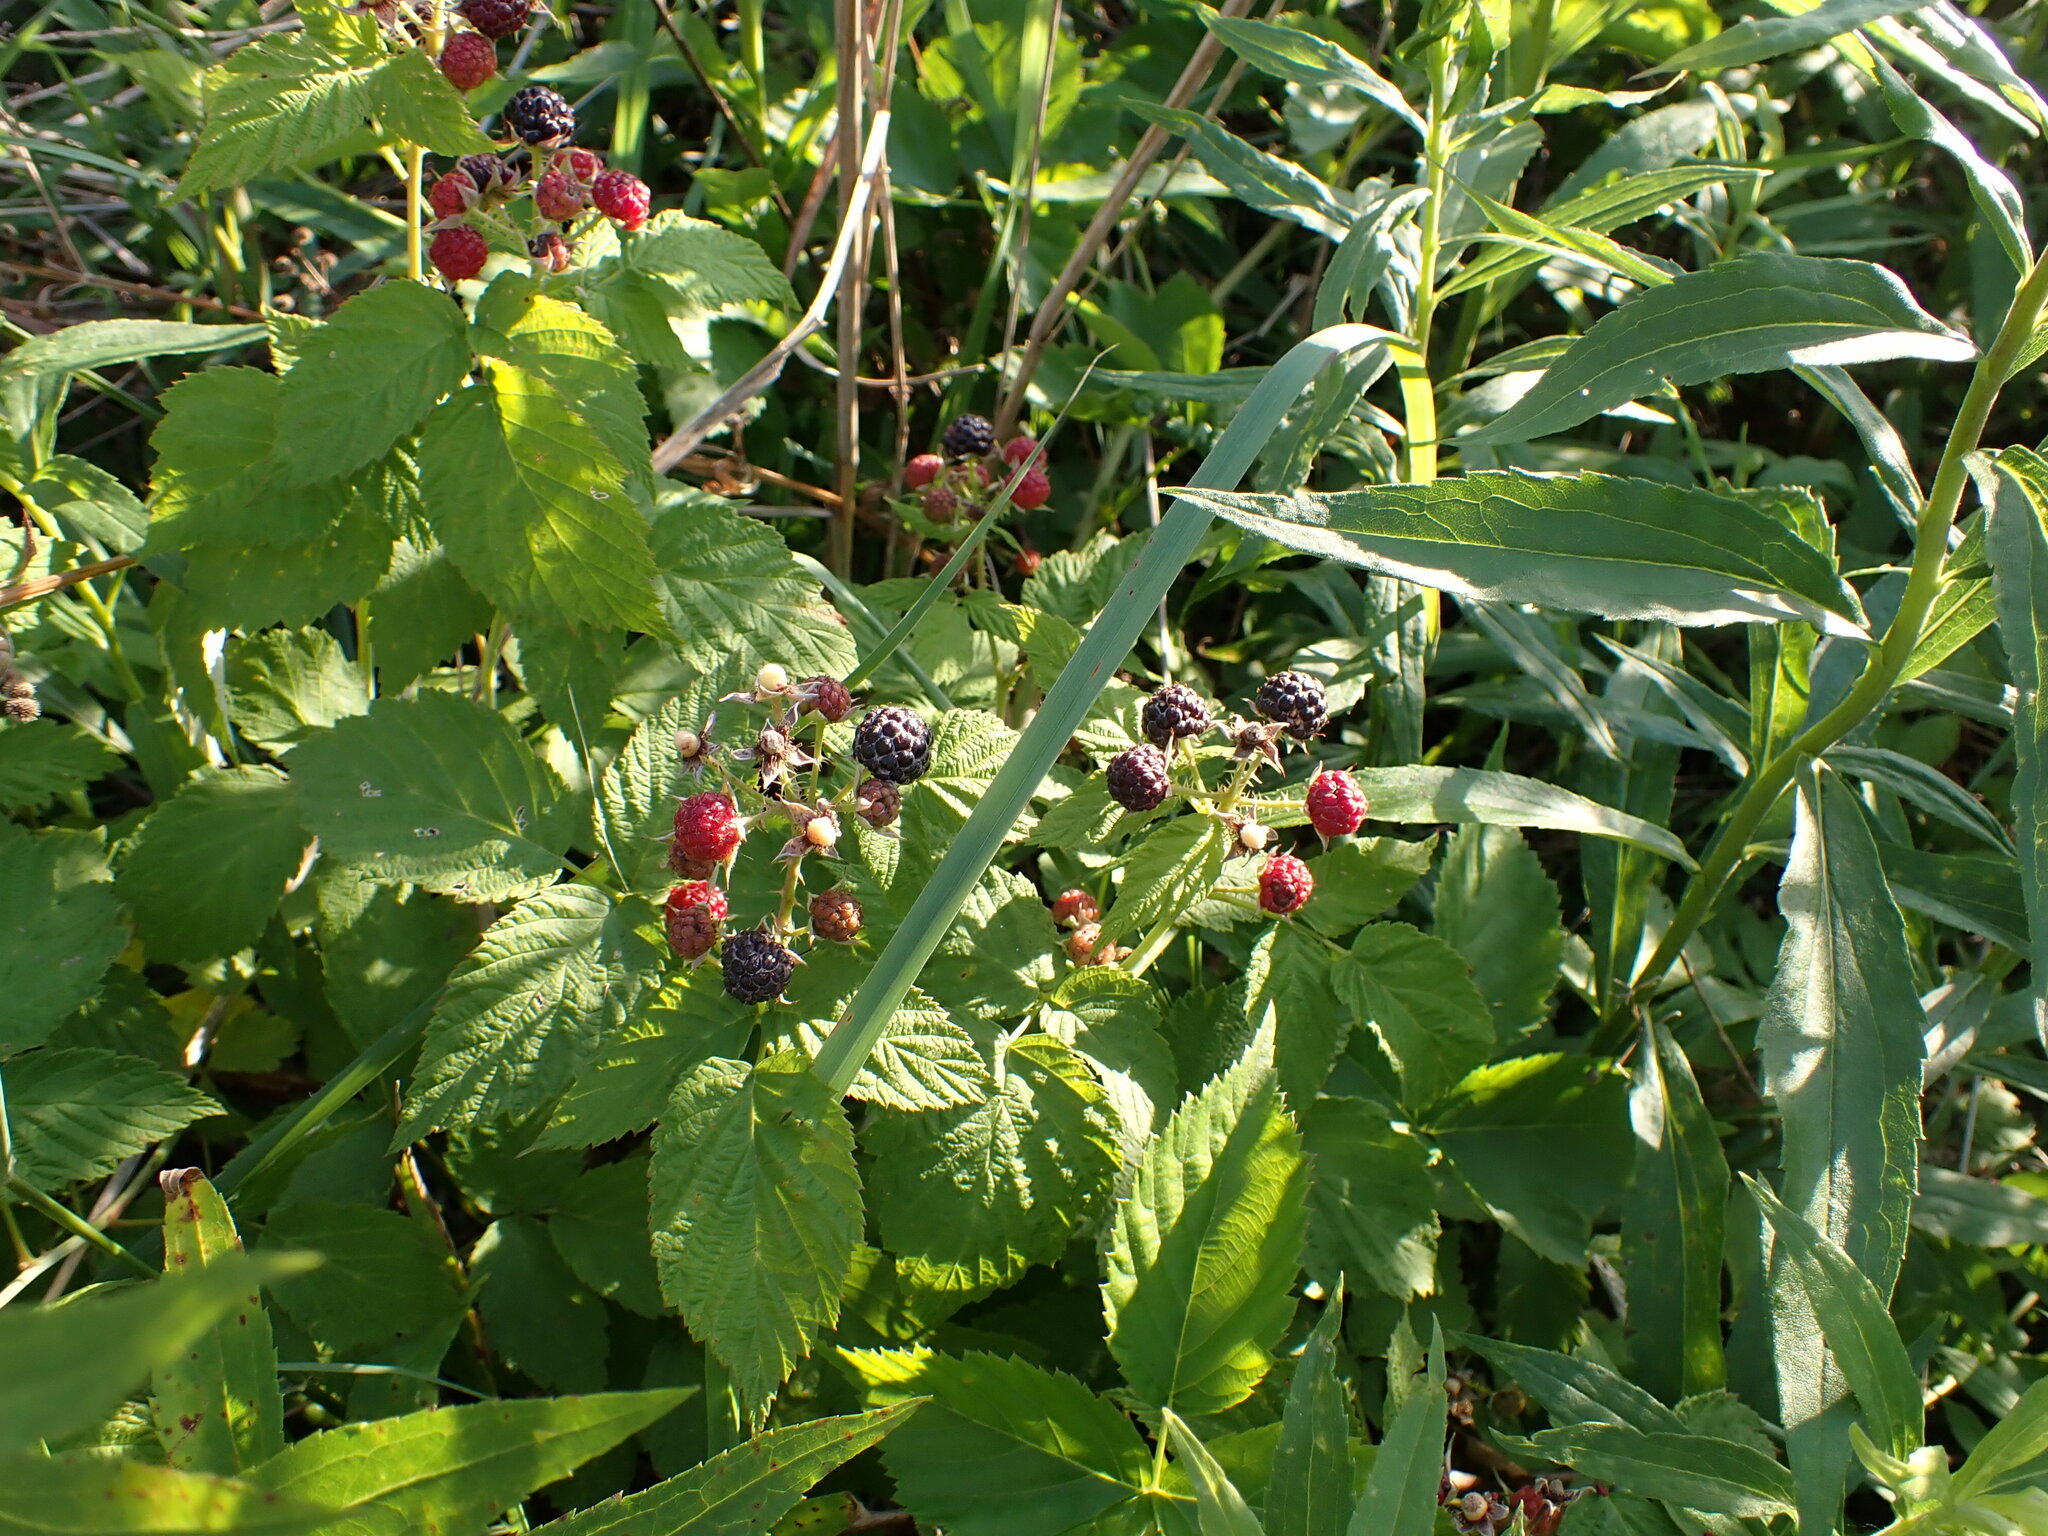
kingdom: Plantae
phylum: Tracheophyta
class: Magnoliopsida
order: Rosales
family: Rosaceae
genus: Rubus
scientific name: Rubus occidentalis
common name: Black raspberry
